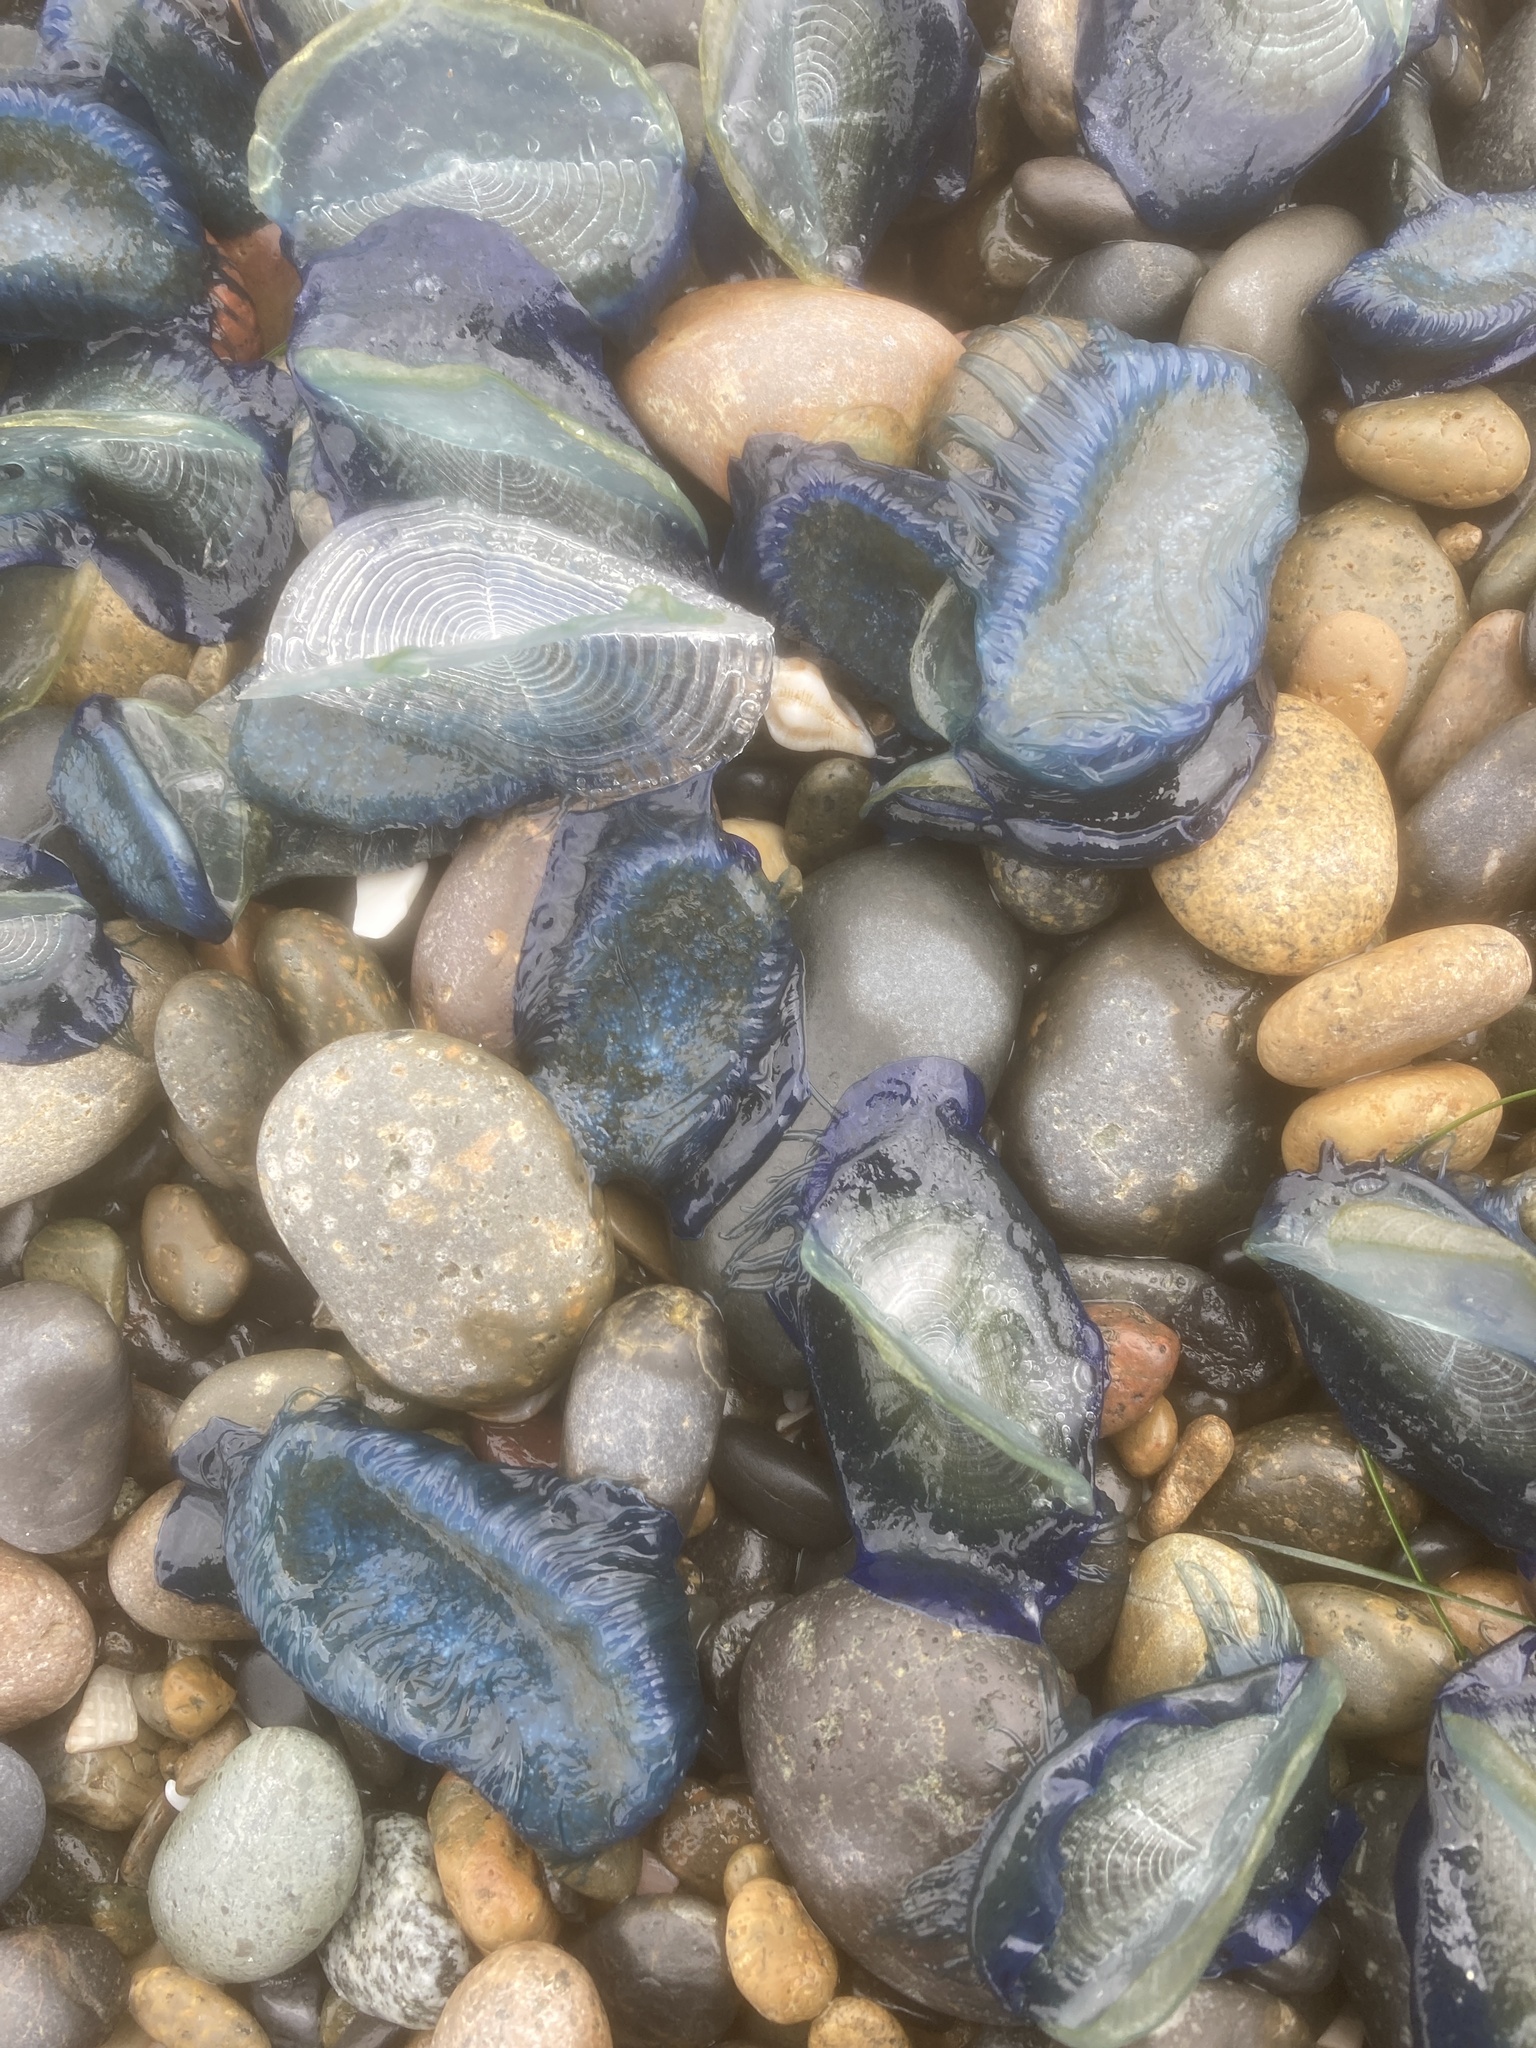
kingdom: Animalia
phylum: Cnidaria
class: Hydrozoa
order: Anthoathecata
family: Porpitidae
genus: Velella
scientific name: Velella velella
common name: By-the-wind-sailor
